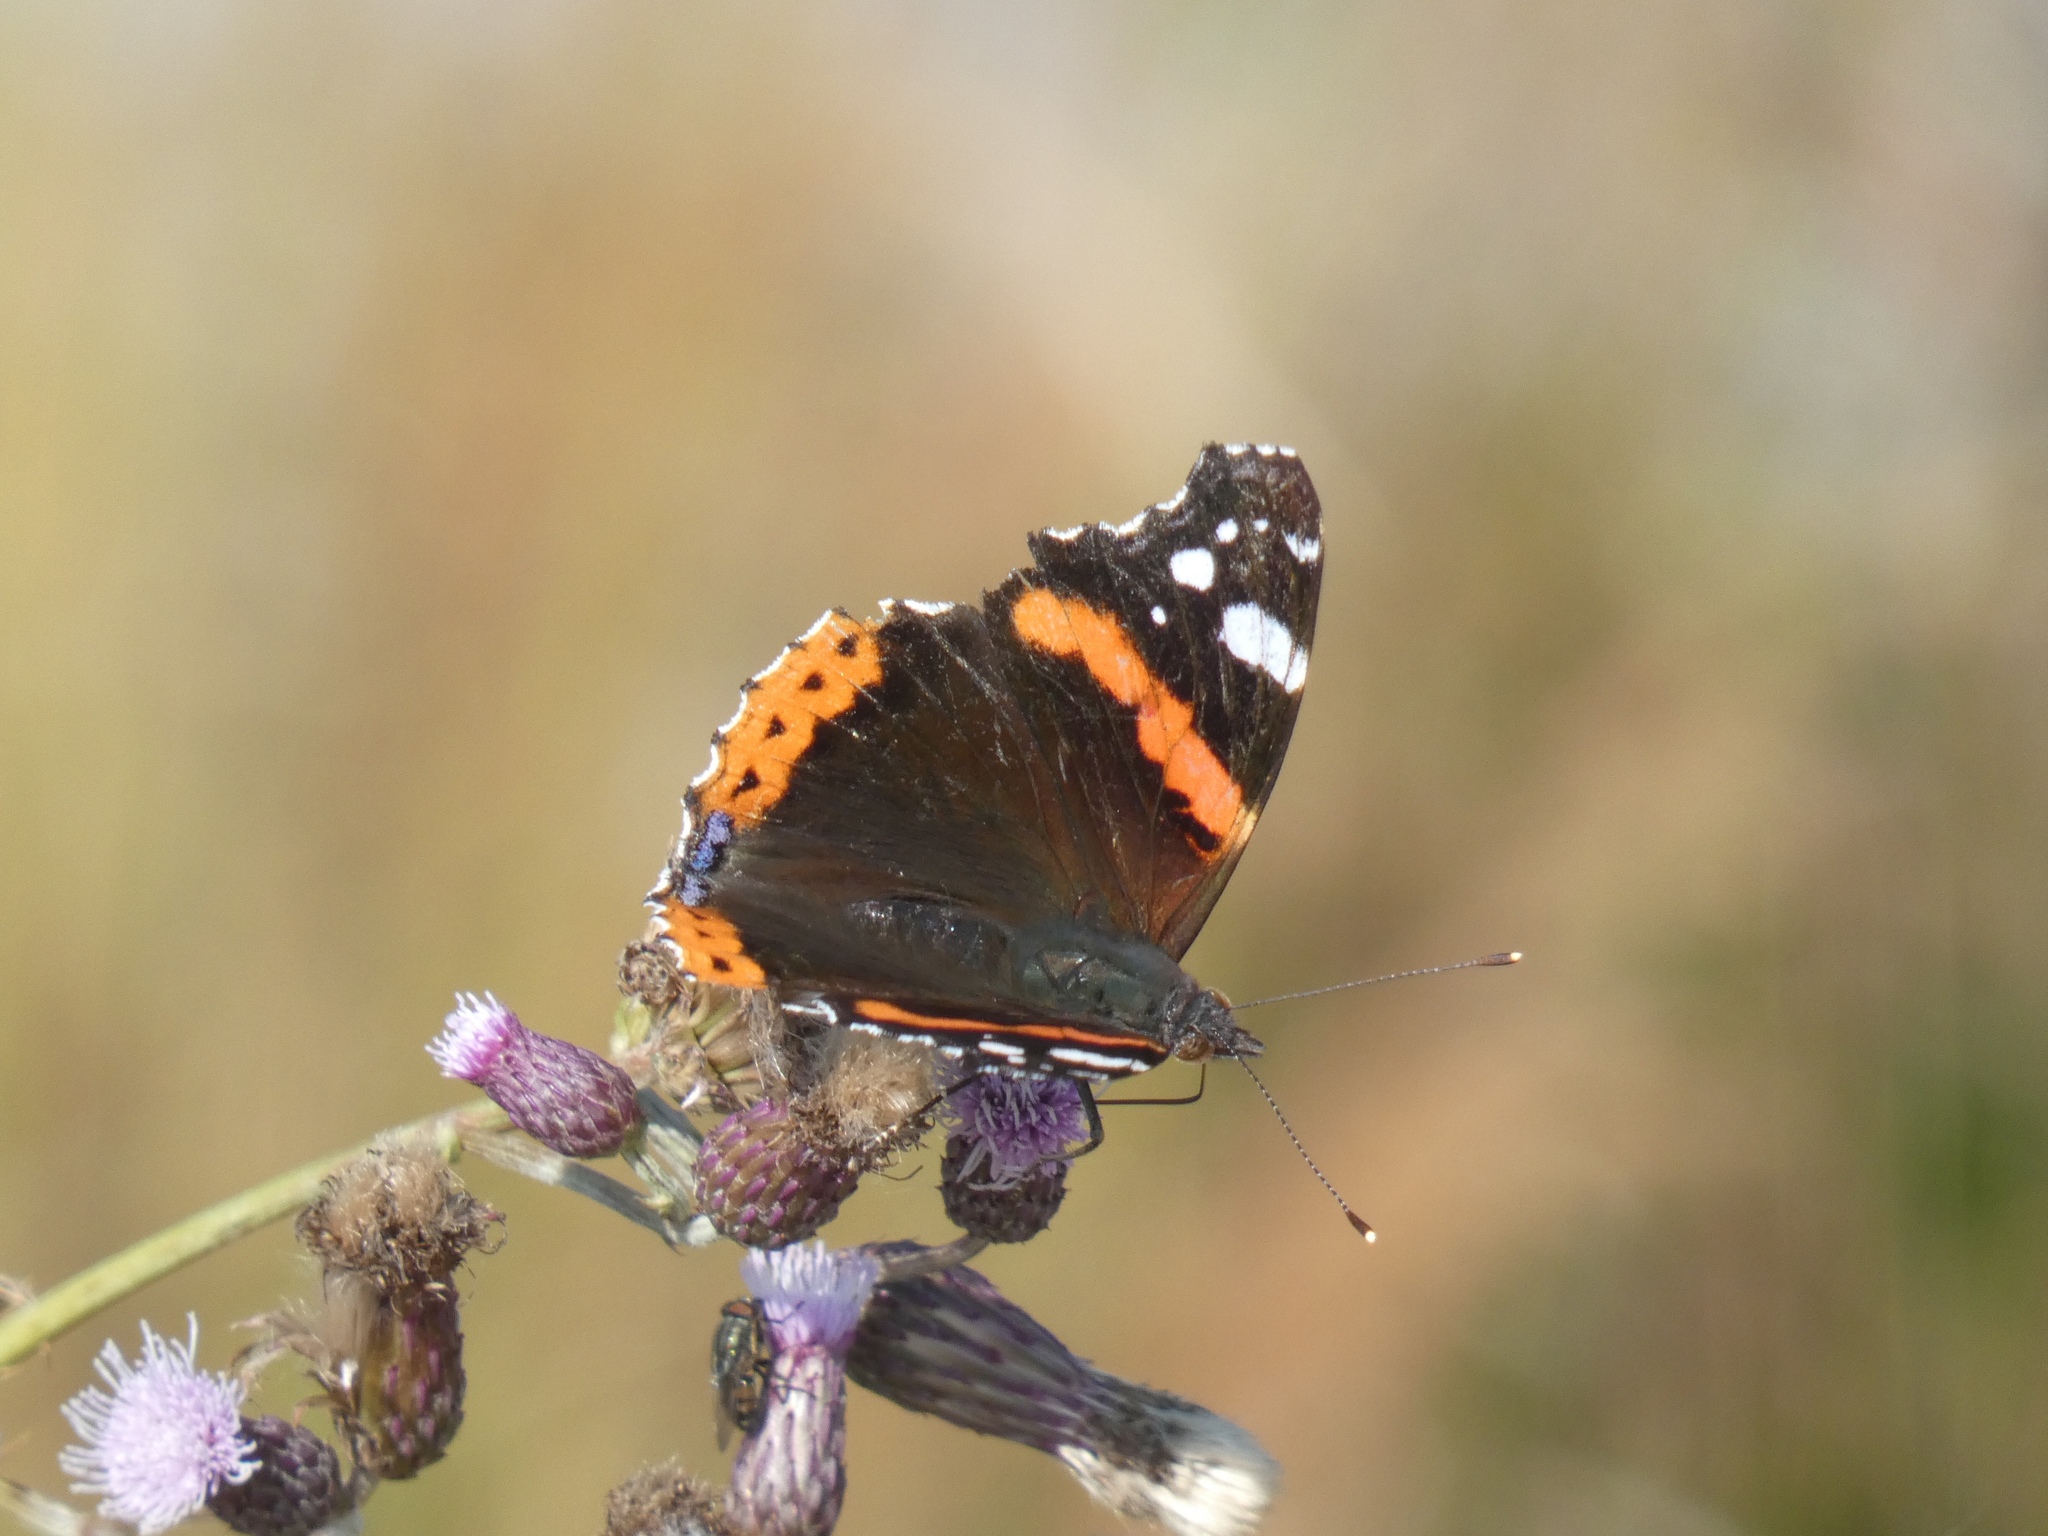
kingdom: Animalia
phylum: Arthropoda
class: Insecta
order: Lepidoptera
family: Nymphalidae
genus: Vanessa
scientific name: Vanessa atalanta
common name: Red admiral
